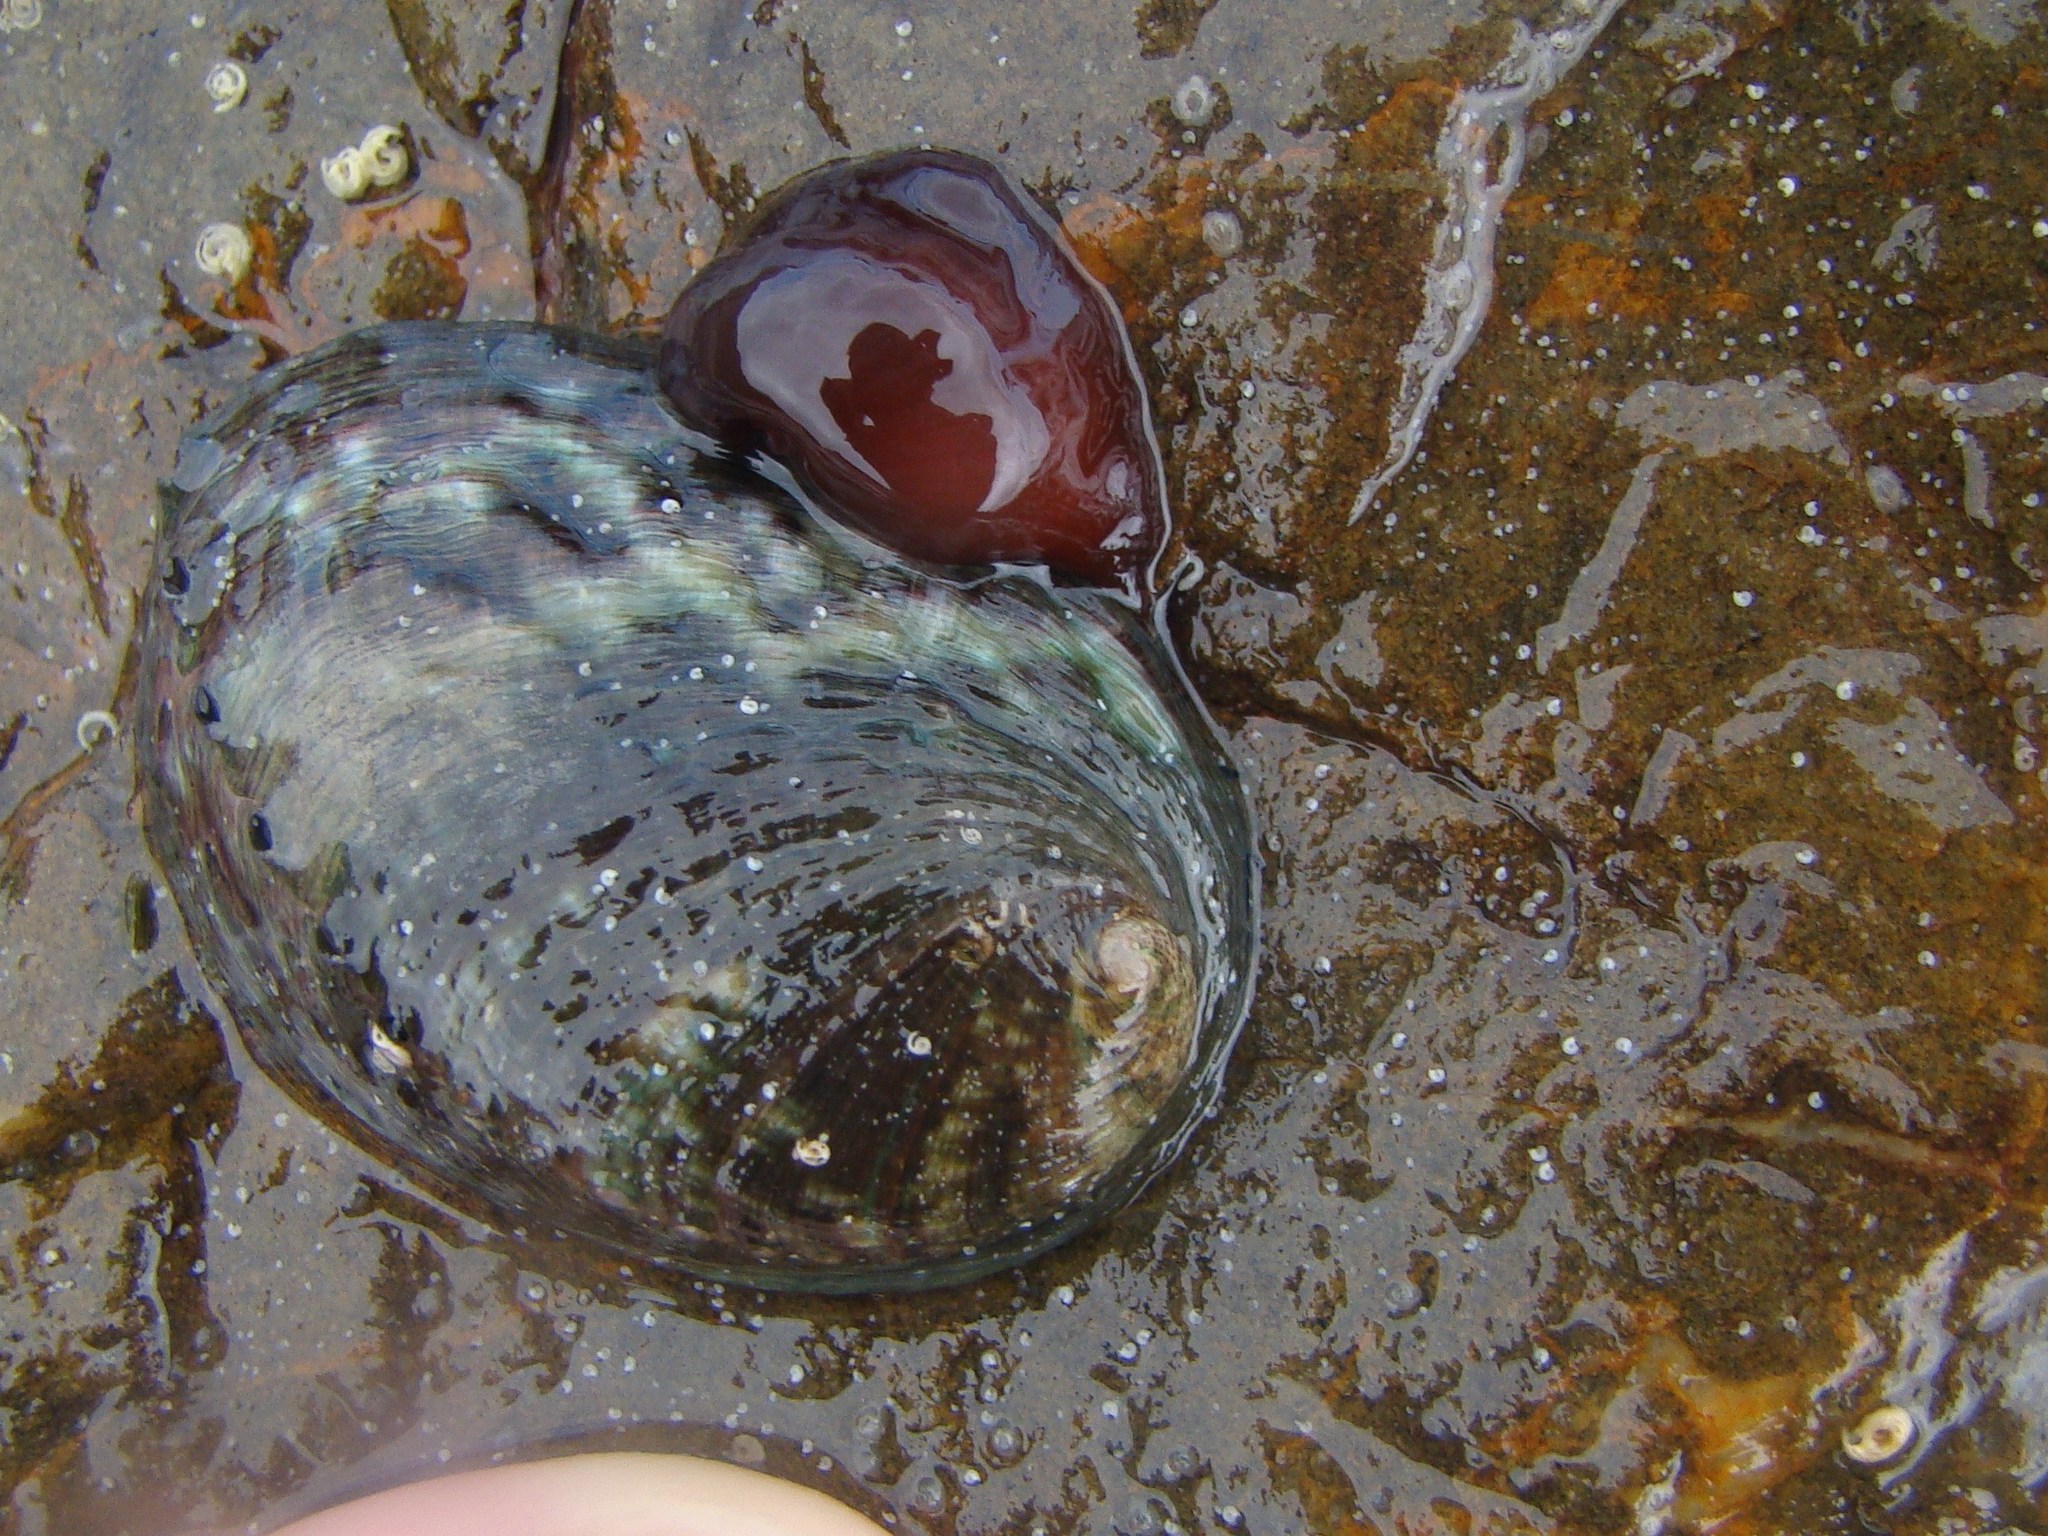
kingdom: Animalia
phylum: Mollusca
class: Gastropoda
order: Lepetellida
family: Haliotidae
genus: Haliotis
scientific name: Haliotis iris
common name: Abalone
